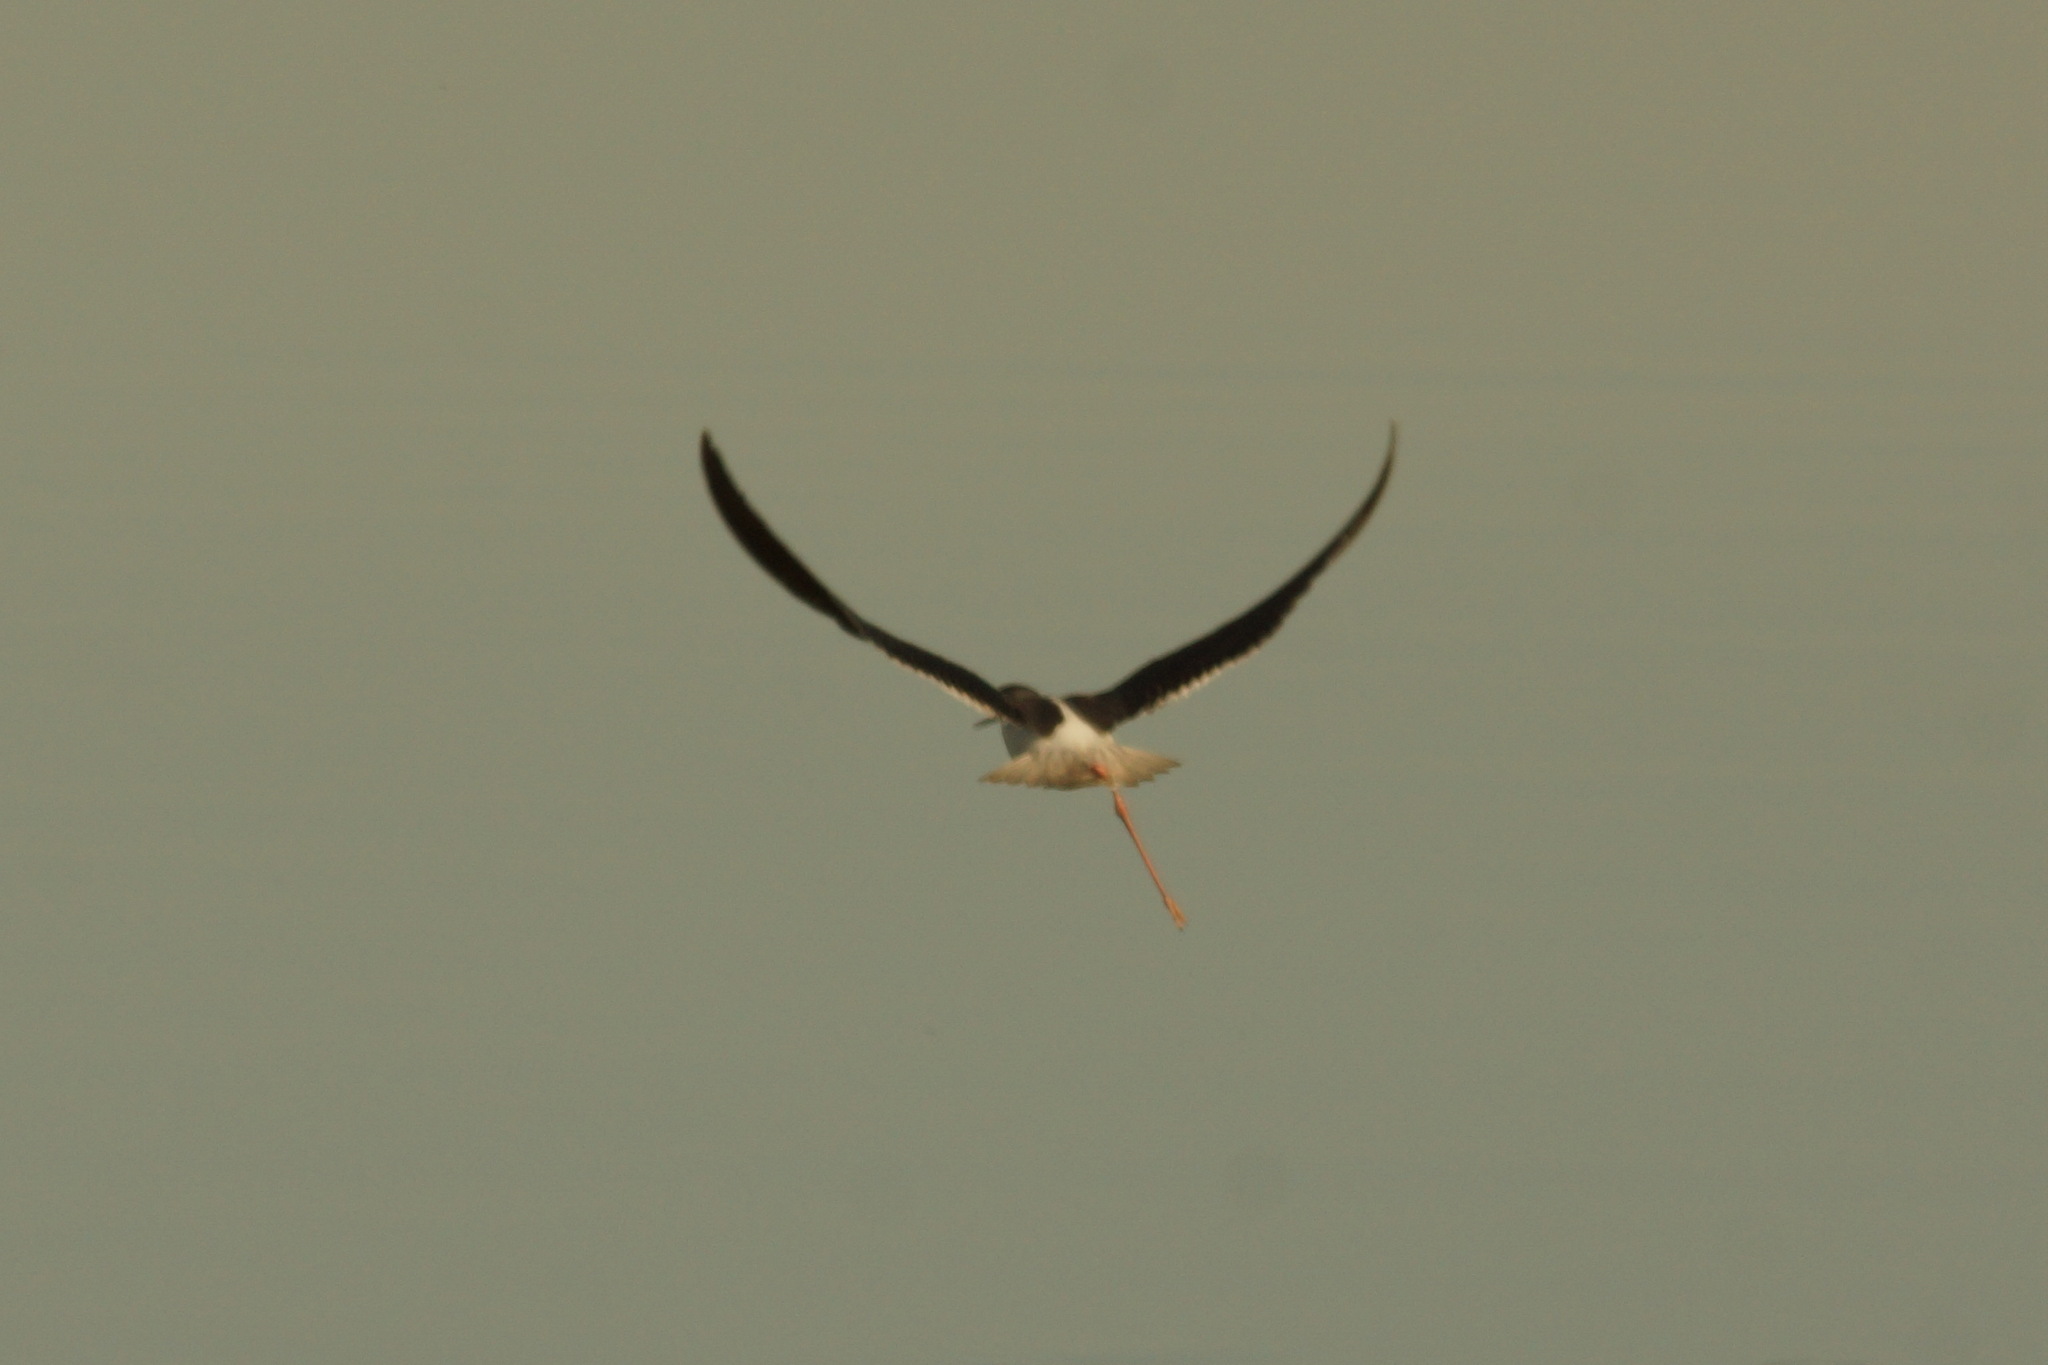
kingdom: Animalia
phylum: Chordata
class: Aves
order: Charadriiformes
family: Recurvirostridae
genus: Himantopus
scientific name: Himantopus himantopus
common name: Black-winged stilt
